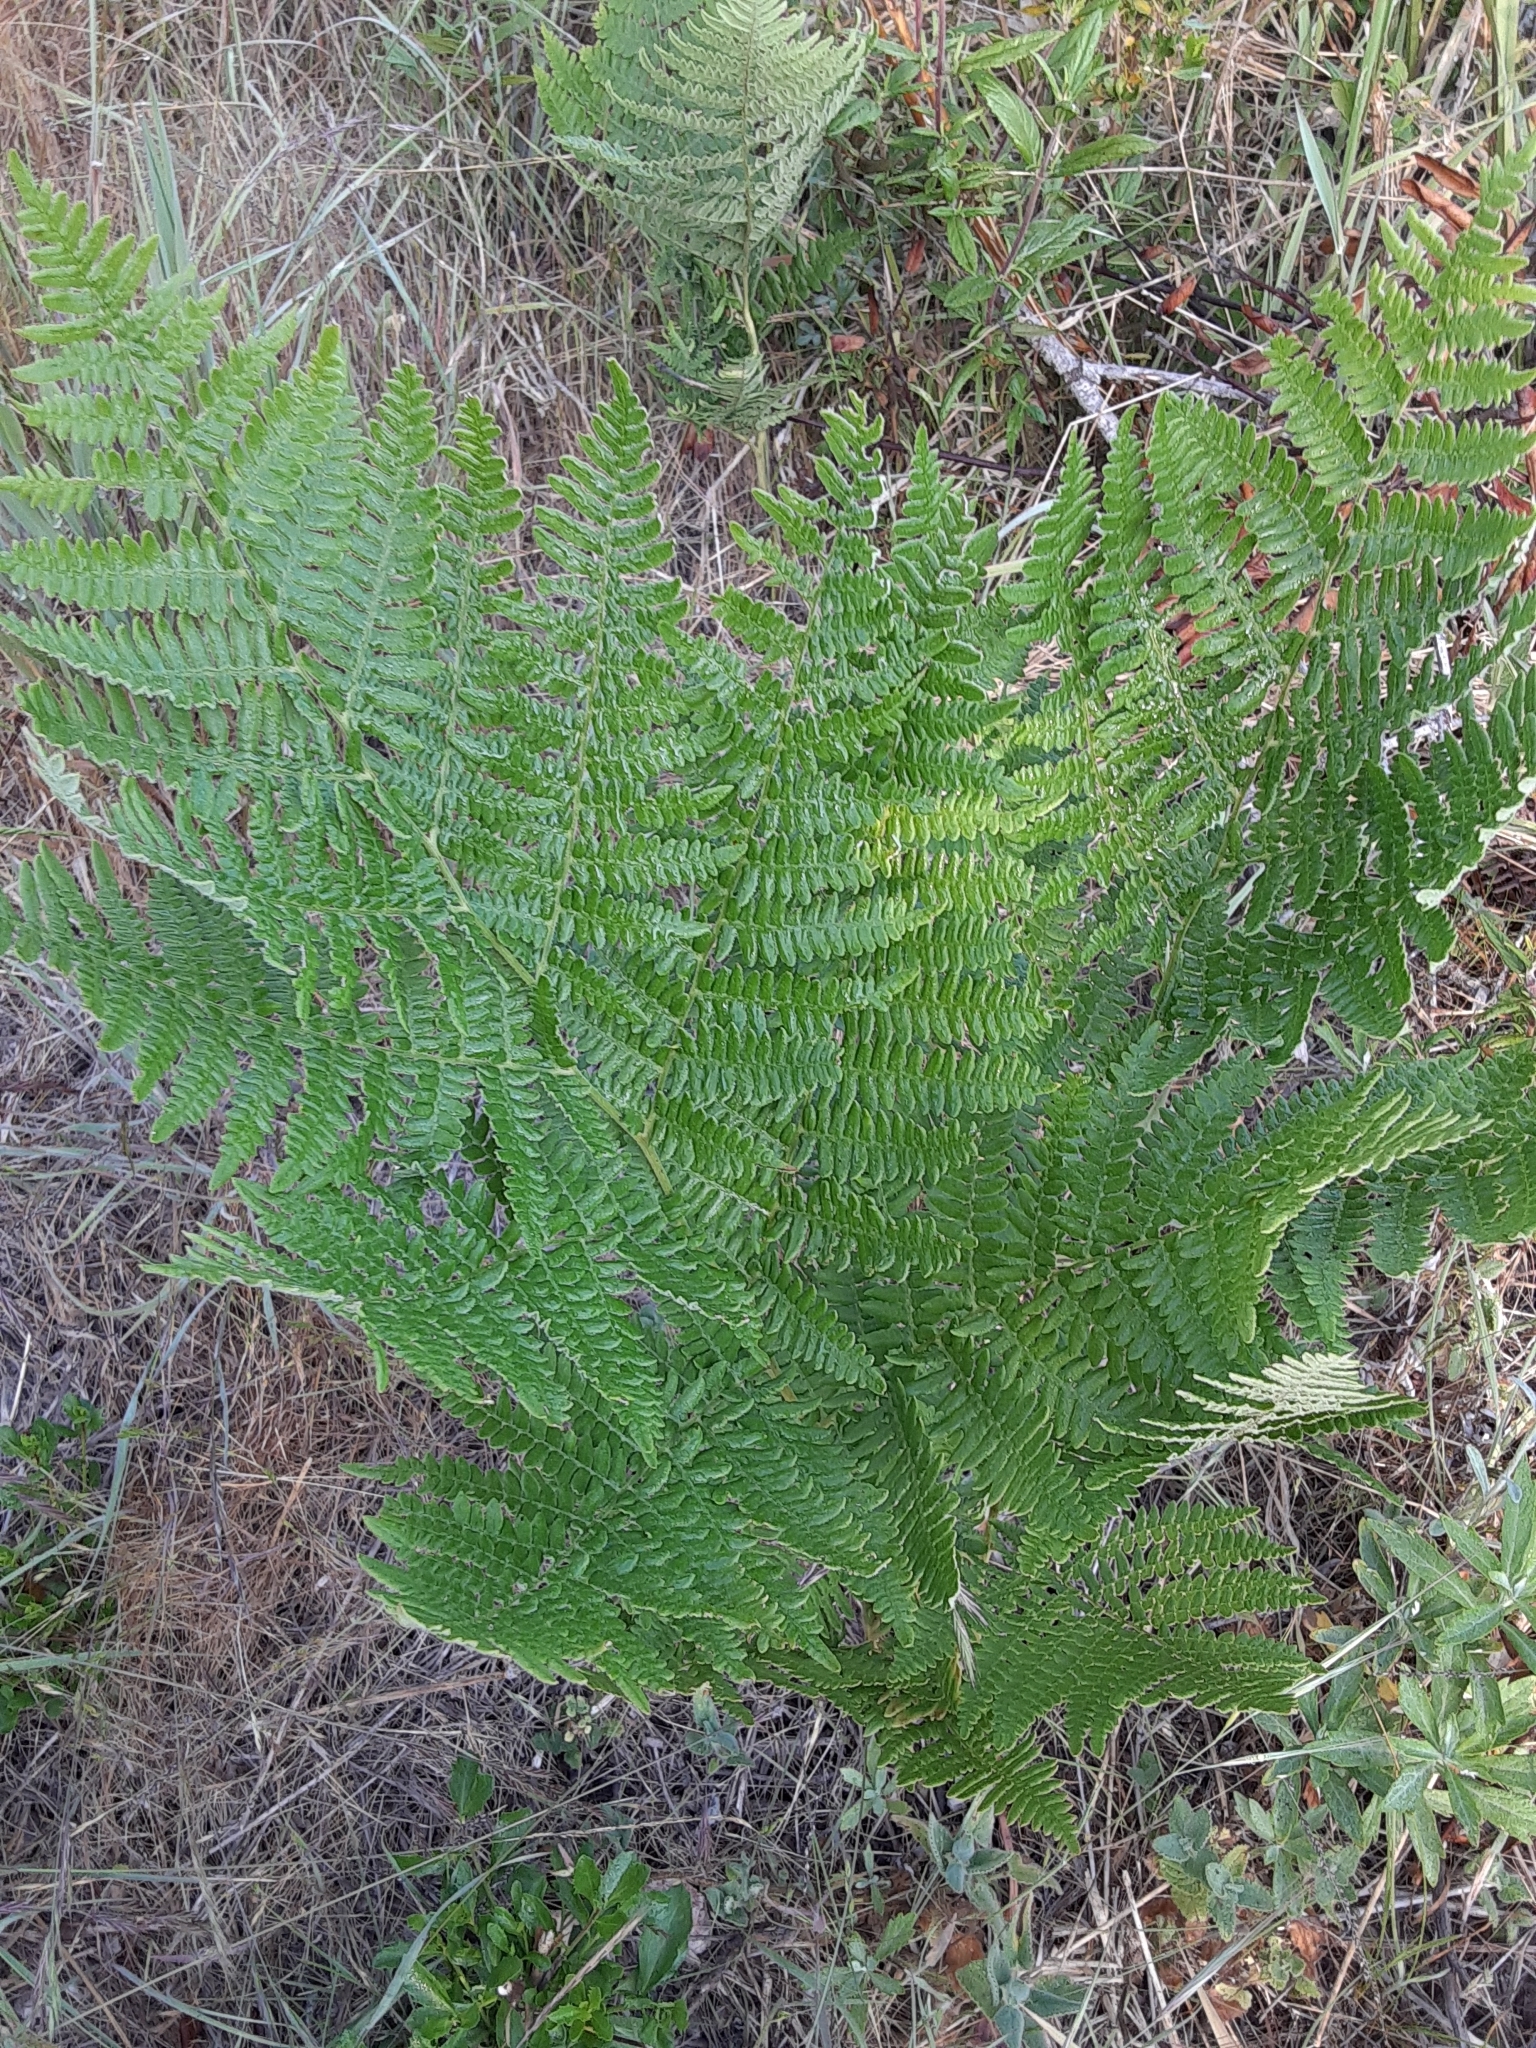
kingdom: Plantae
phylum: Tracheophyta
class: Polypodiopsida
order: Polypodiales
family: Dennstaedtiaceae
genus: Pteridium
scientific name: Pteridium aquilinum
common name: Bracken
